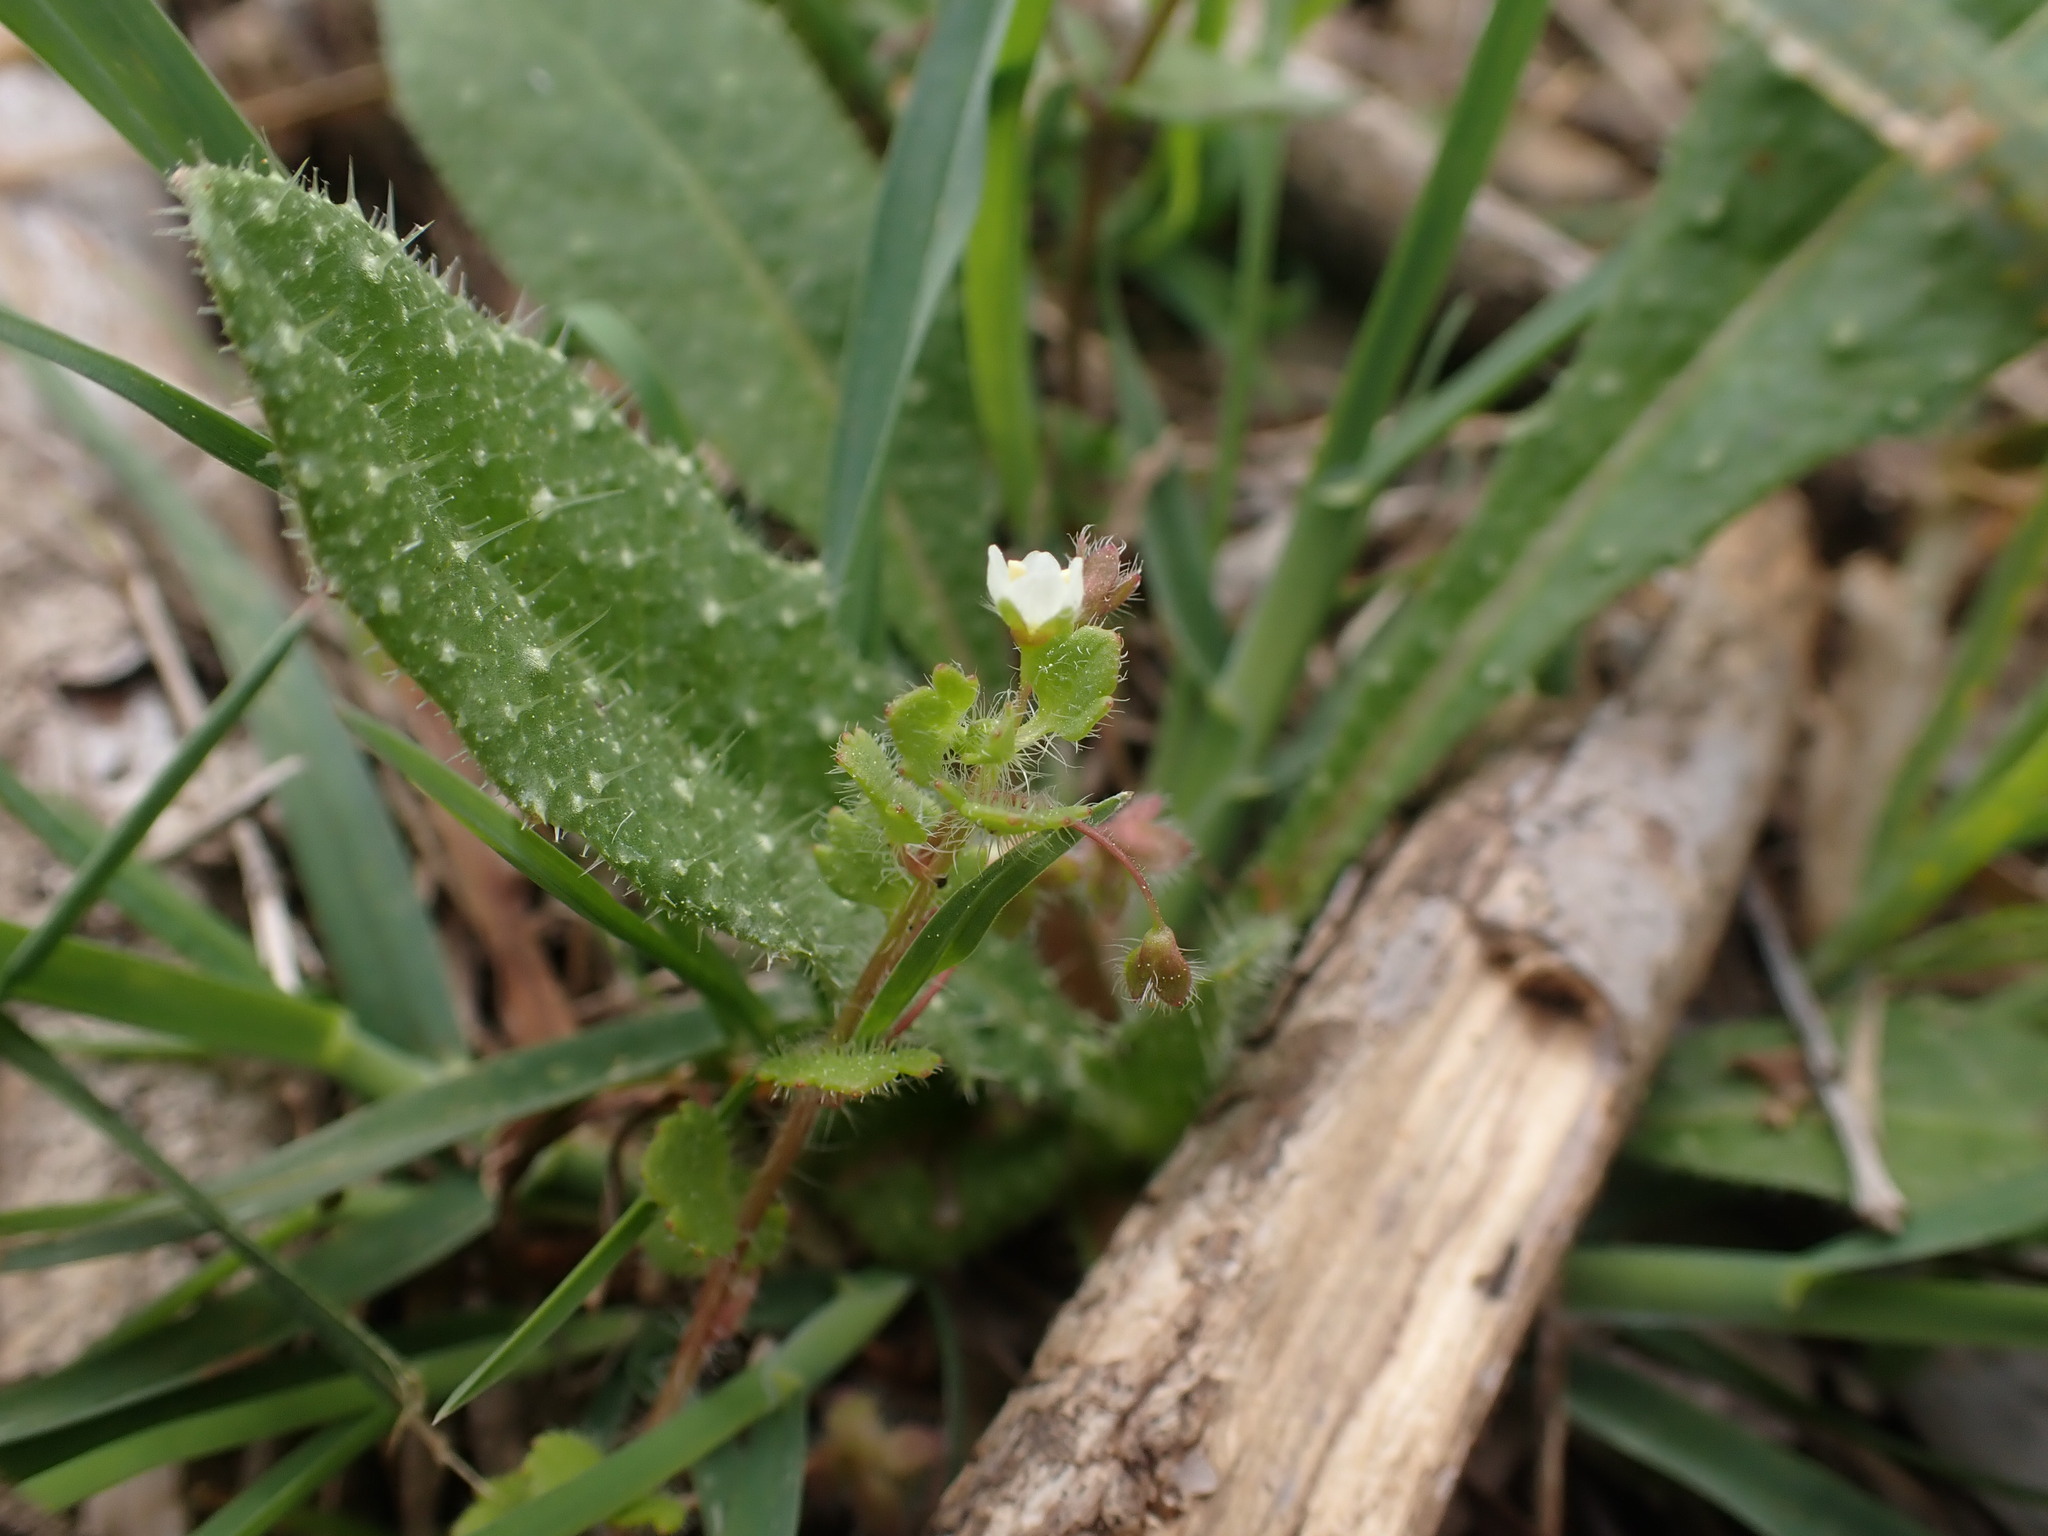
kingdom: Plantae
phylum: Tracheophyta
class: Magnoliopsida
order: Lamiales
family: Plantaginaceae
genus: Veronica
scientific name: Veronica cymbalaria
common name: Pale speedwell
